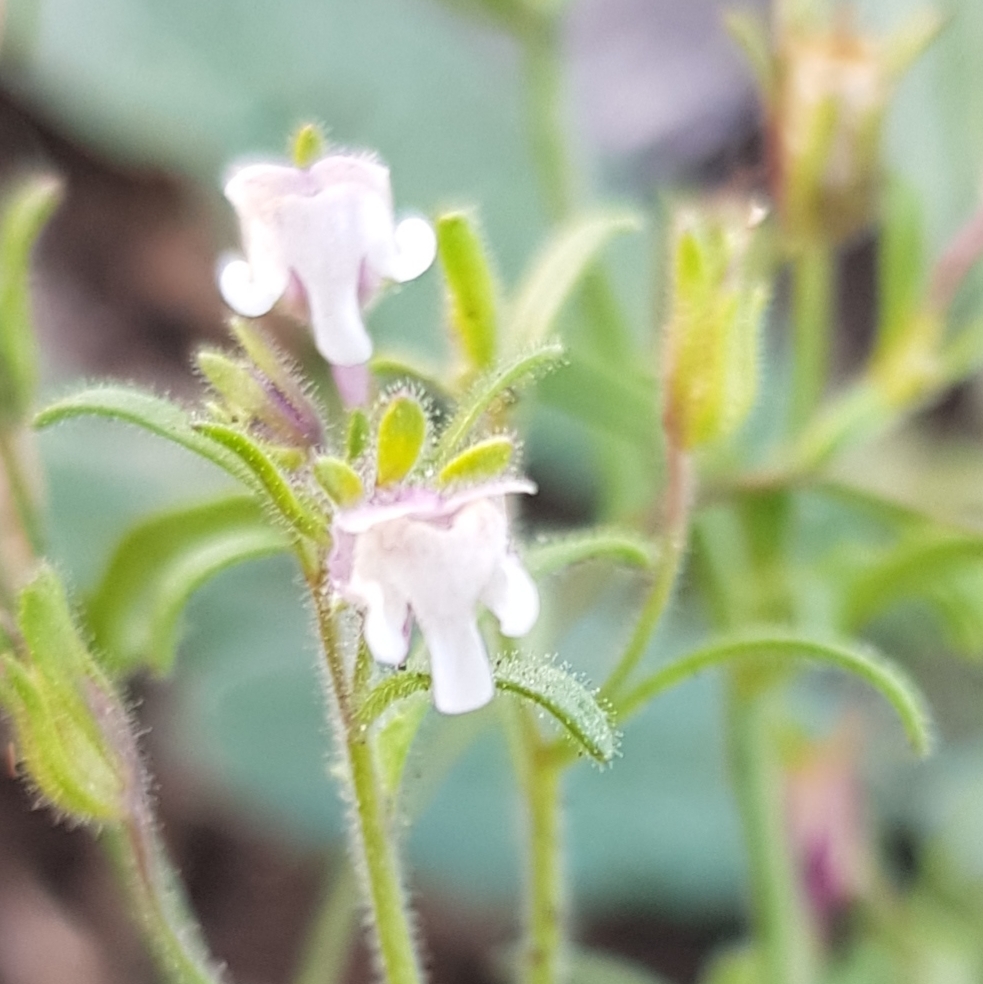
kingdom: Plantae
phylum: Tracheophyta
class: Magnoliopsida
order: Lamiales
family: Plantaginaceae
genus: Chaenorhinum
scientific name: Chaenorhinum minus
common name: Dwarf snapdragon
